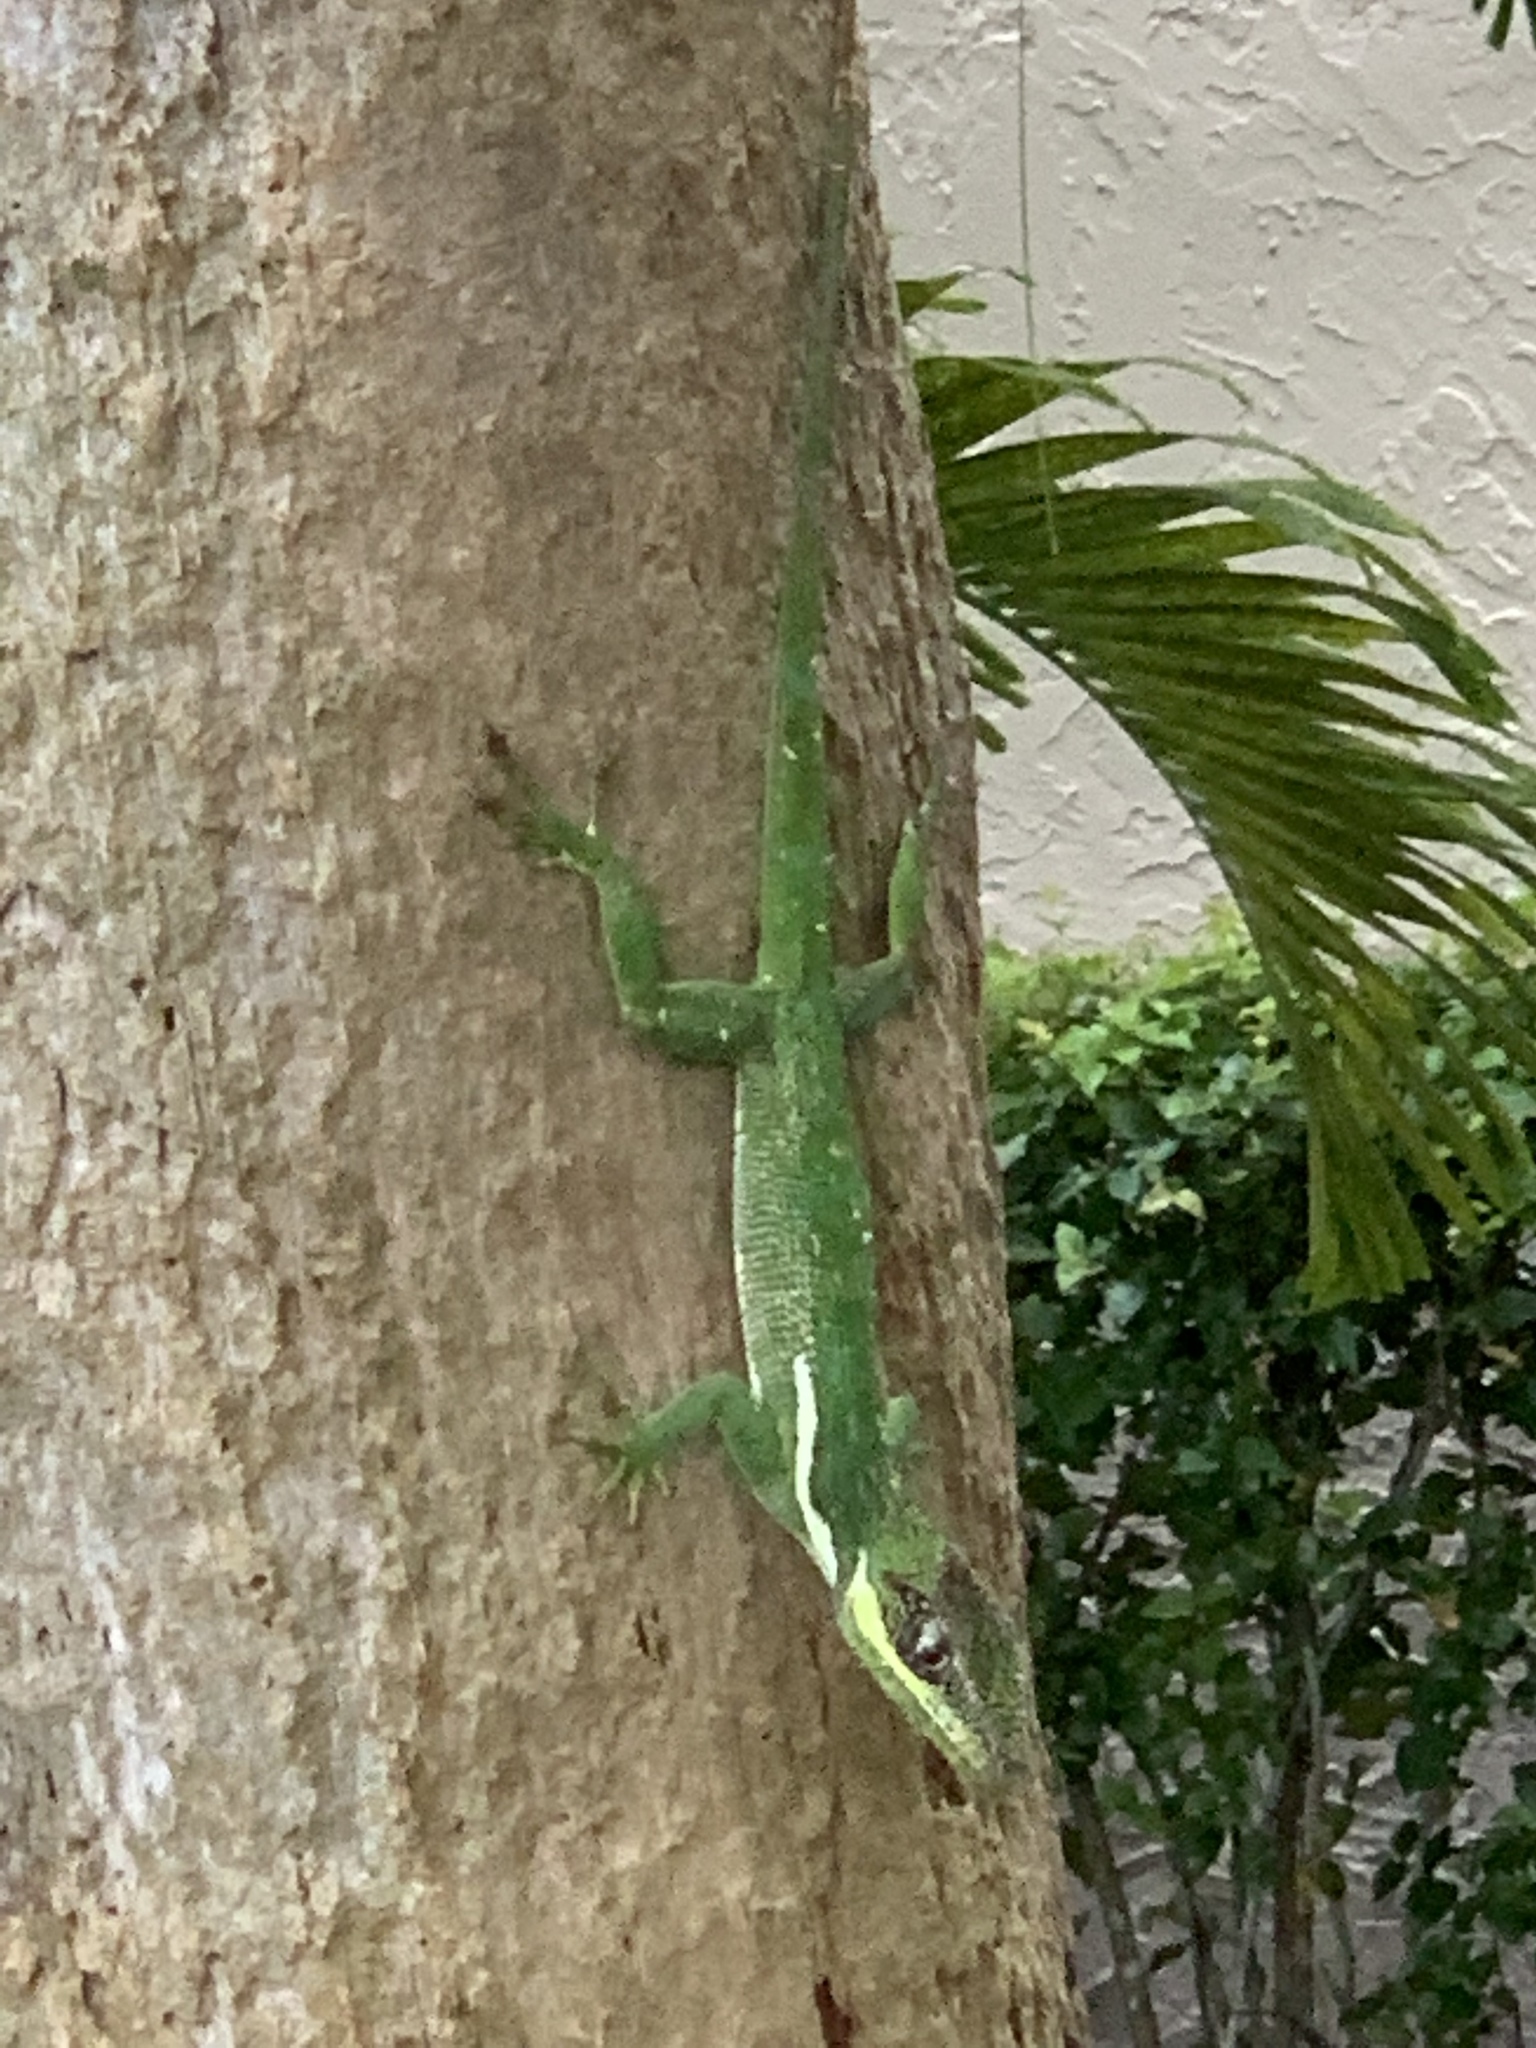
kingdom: Animalia
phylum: Chordata
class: Squamata
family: Dactyloidae
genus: Anolis
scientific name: Anolis equestris
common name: Knight anole
